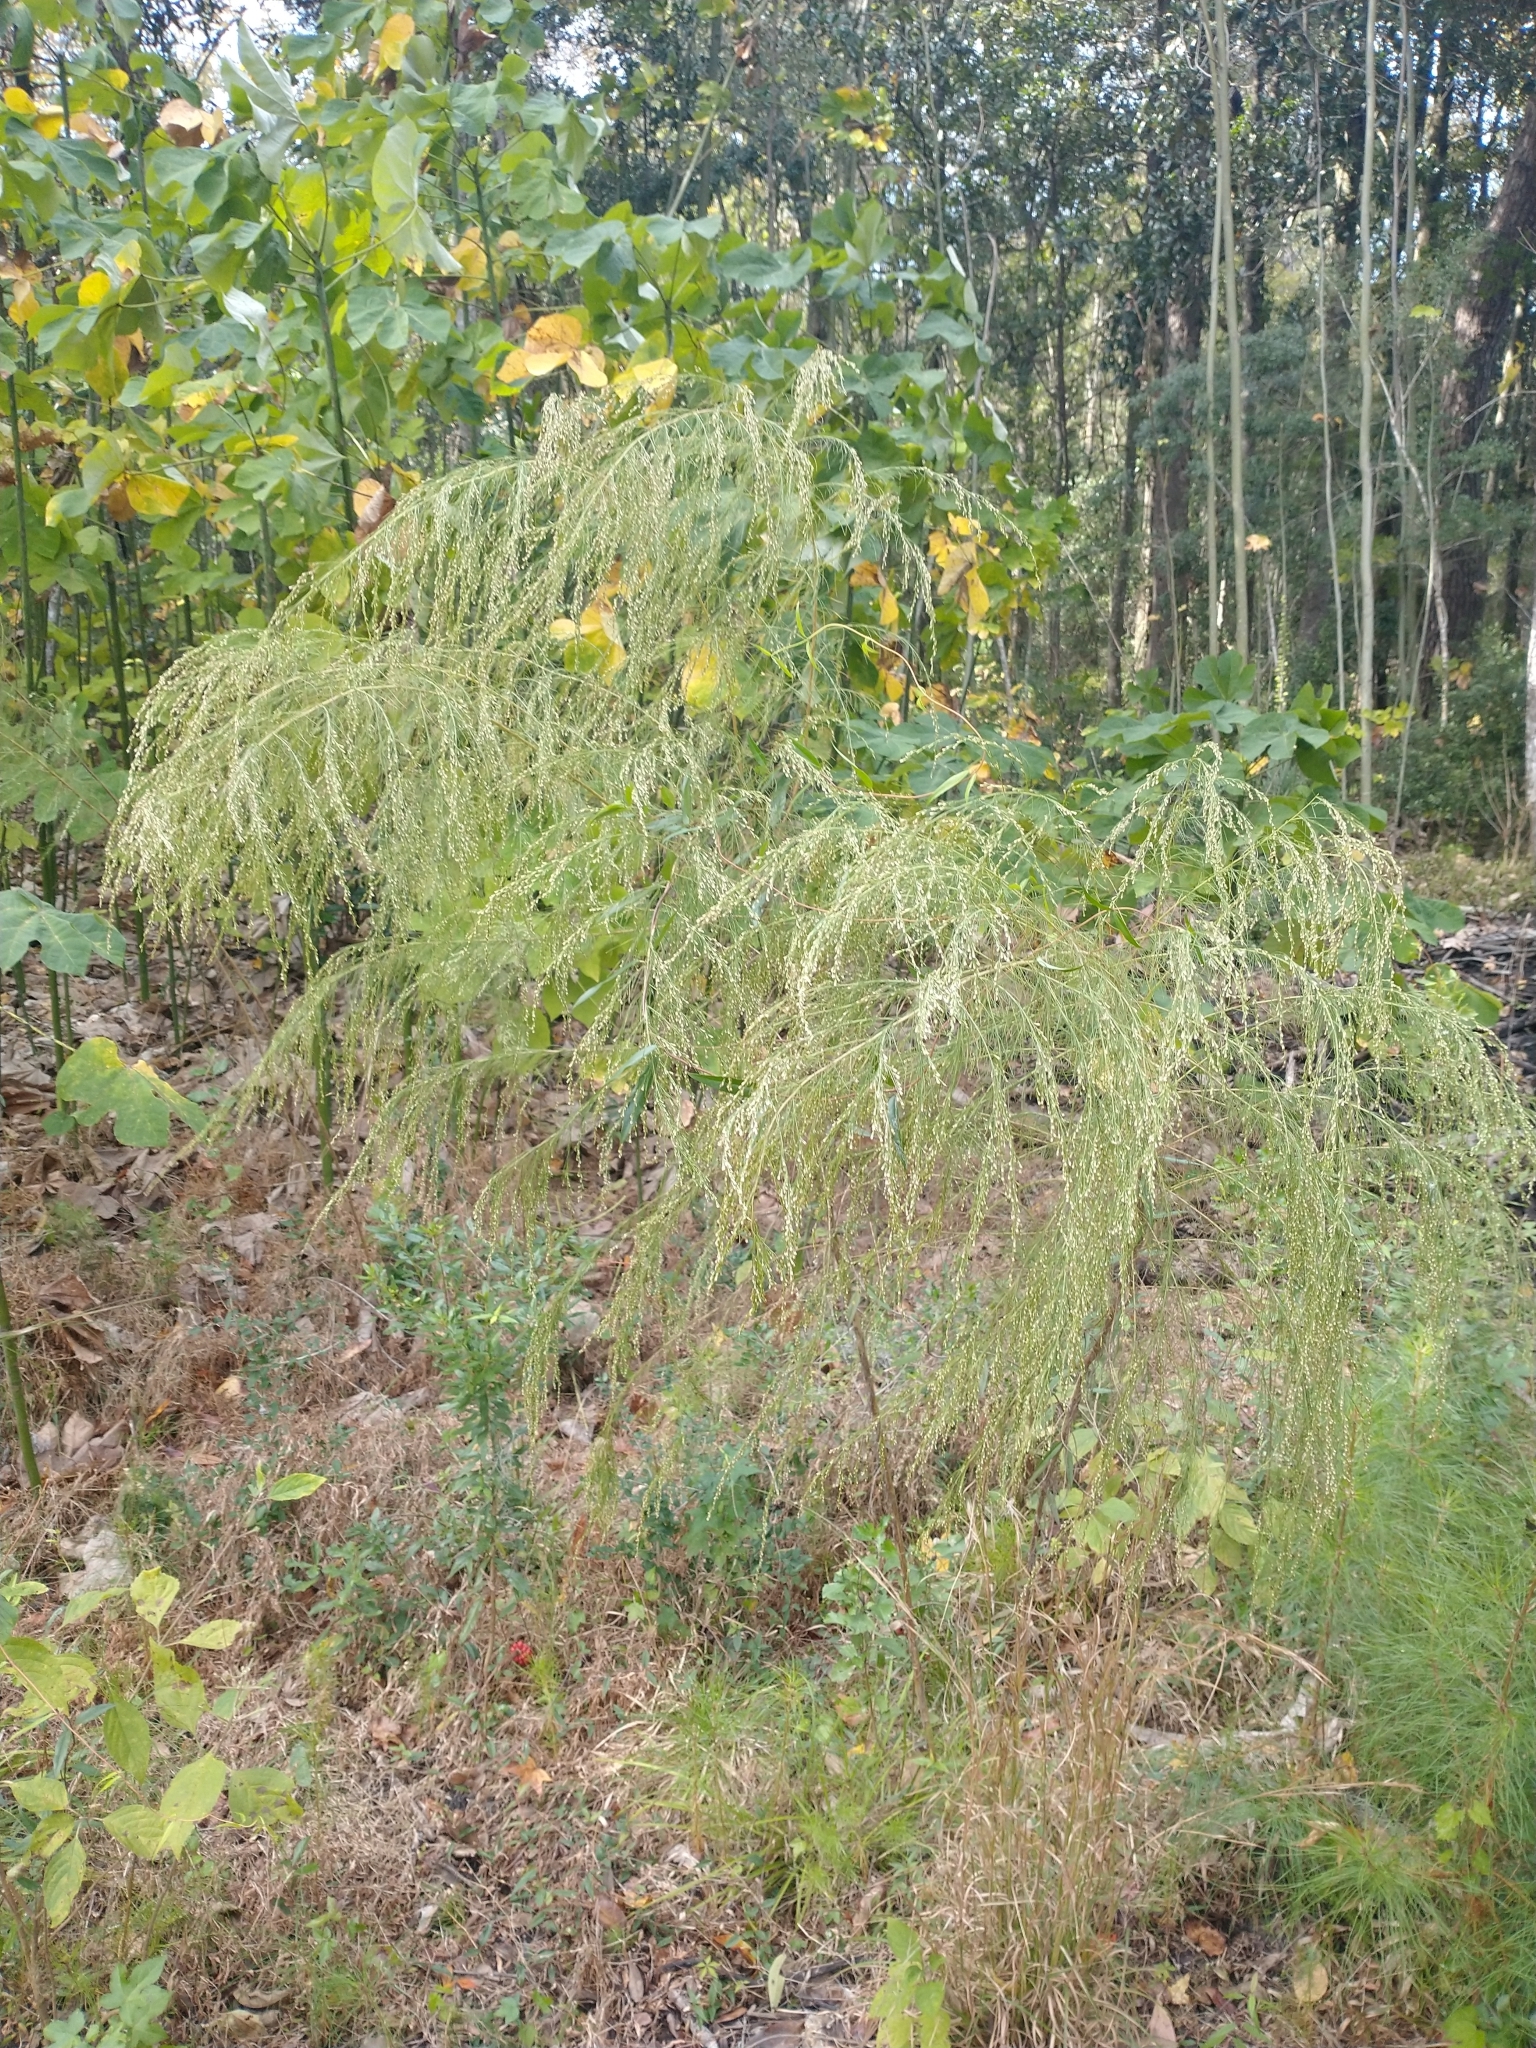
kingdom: Plantae
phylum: Tracheophyta
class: Magnoliopsida
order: Asterales
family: Asteraceae
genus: Eupatorium
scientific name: Eupatorium capillifolium
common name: Dog-fennel
